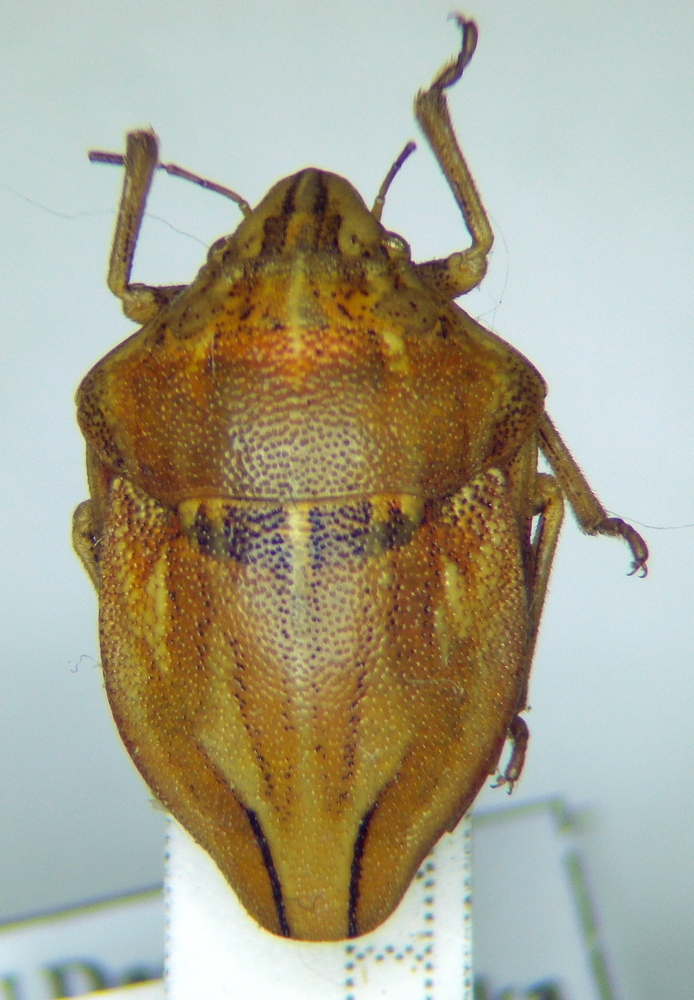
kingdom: Animalia
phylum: Arthropoda
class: Insecta
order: Hemiptera
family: Scutelleridae
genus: Odontotarsus
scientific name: Odontotarsus purpureolineatus
